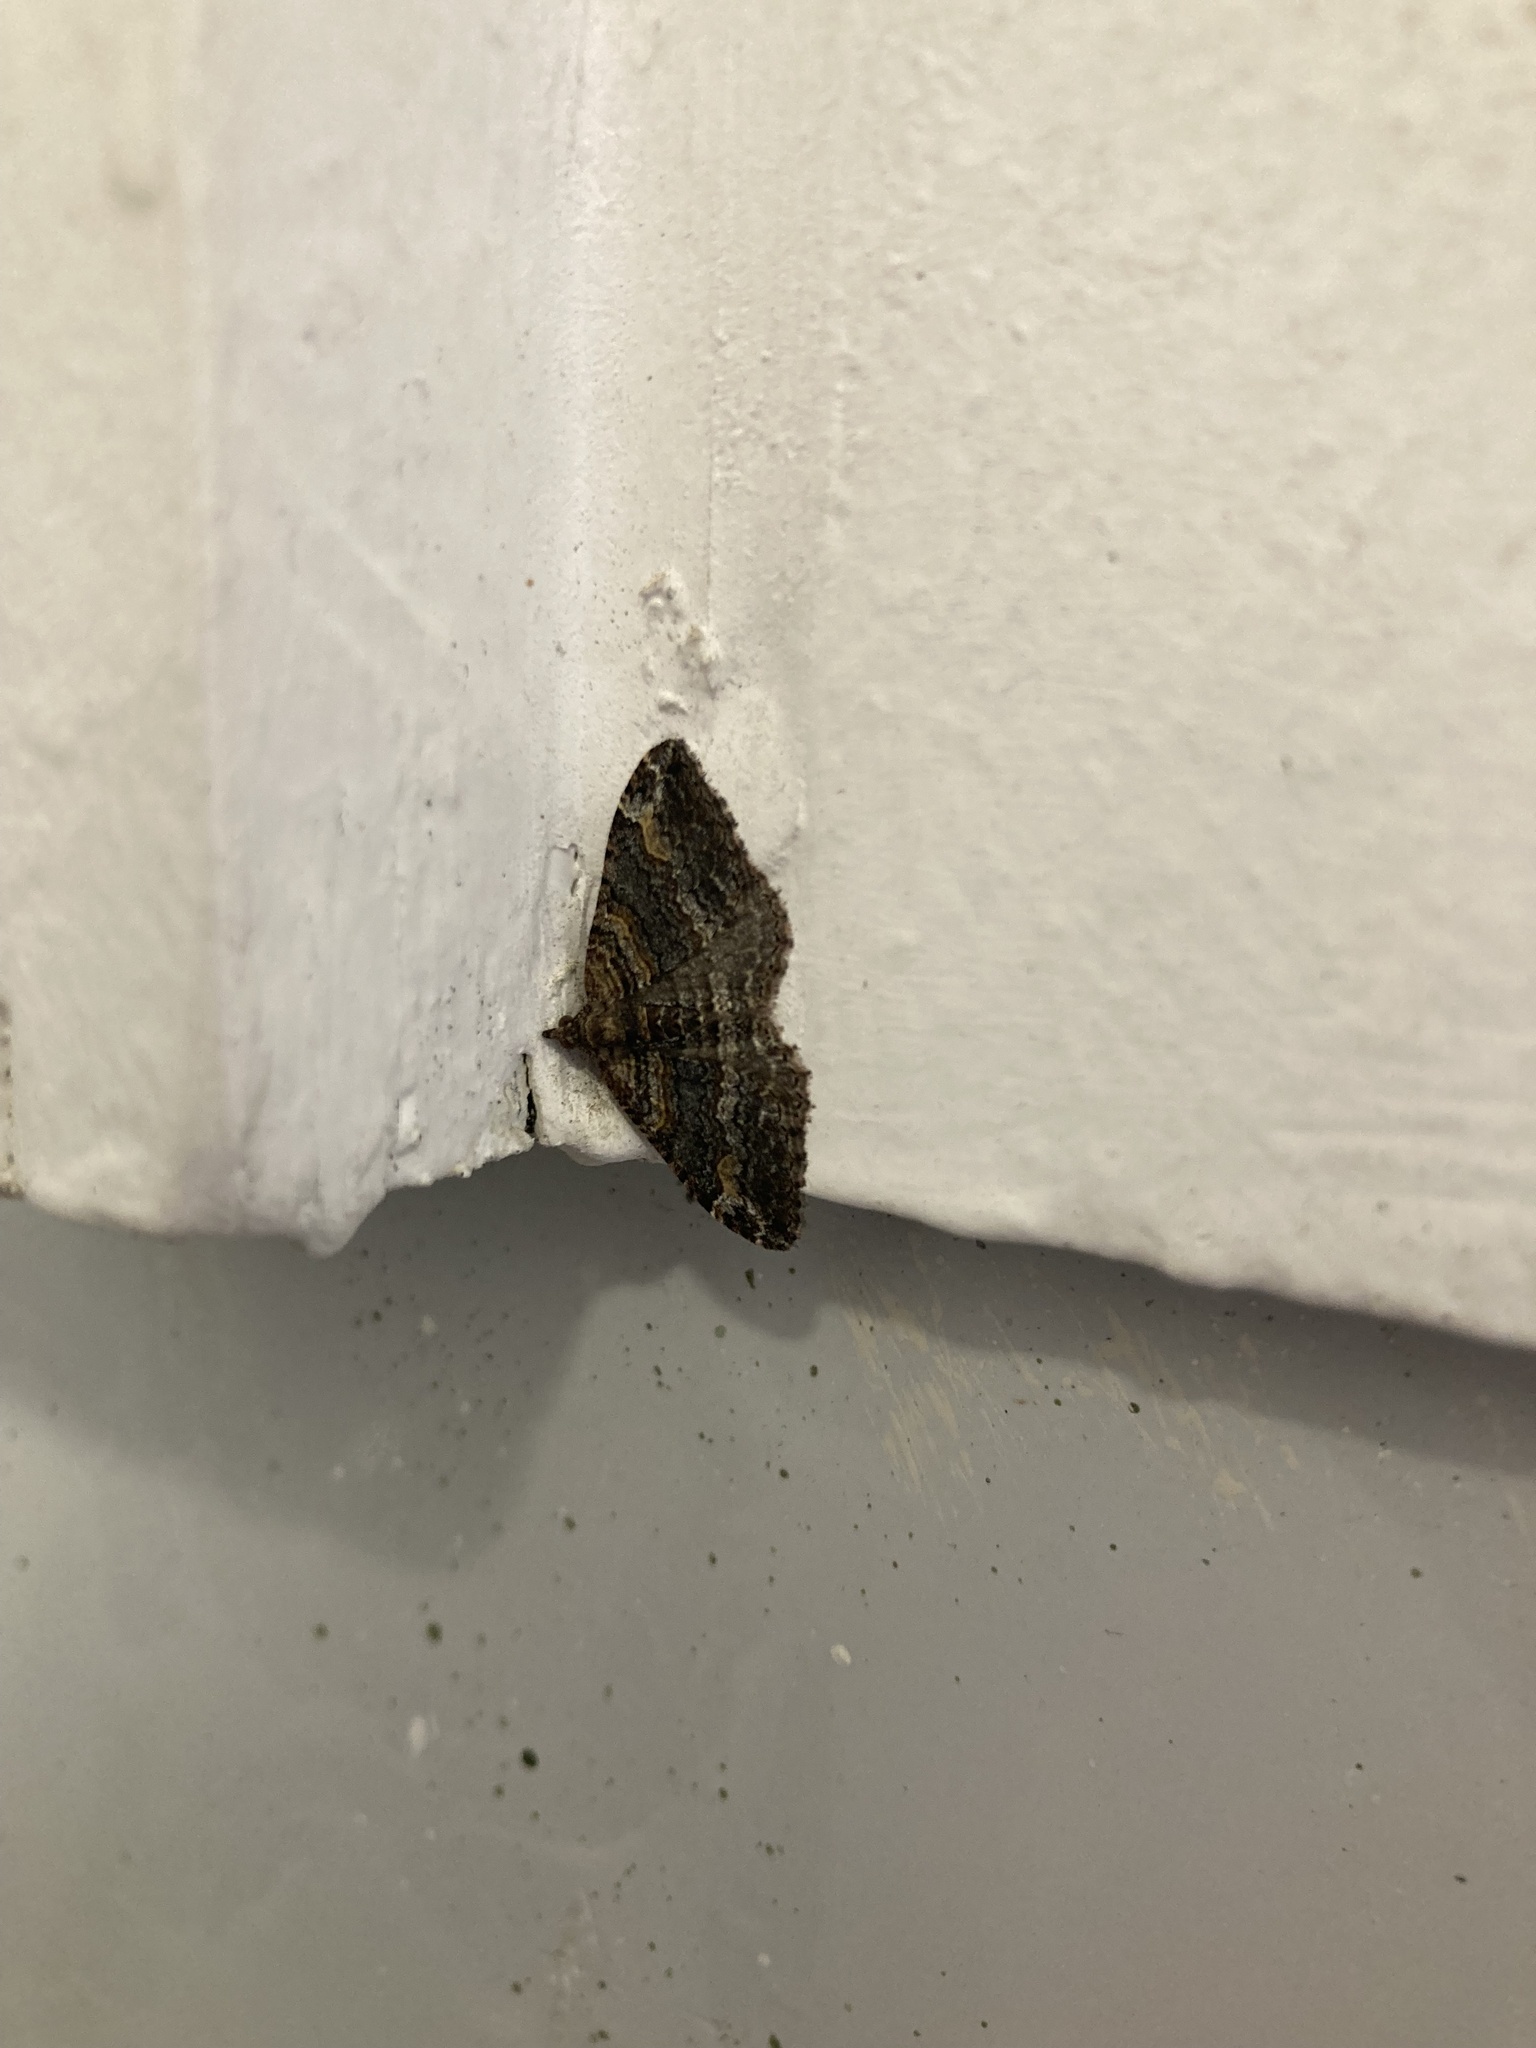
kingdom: Animalia
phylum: Arthropoda
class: Insecta
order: Lepidoptera
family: Geometridae
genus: Epyaxa
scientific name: Epyaxa lucidata
